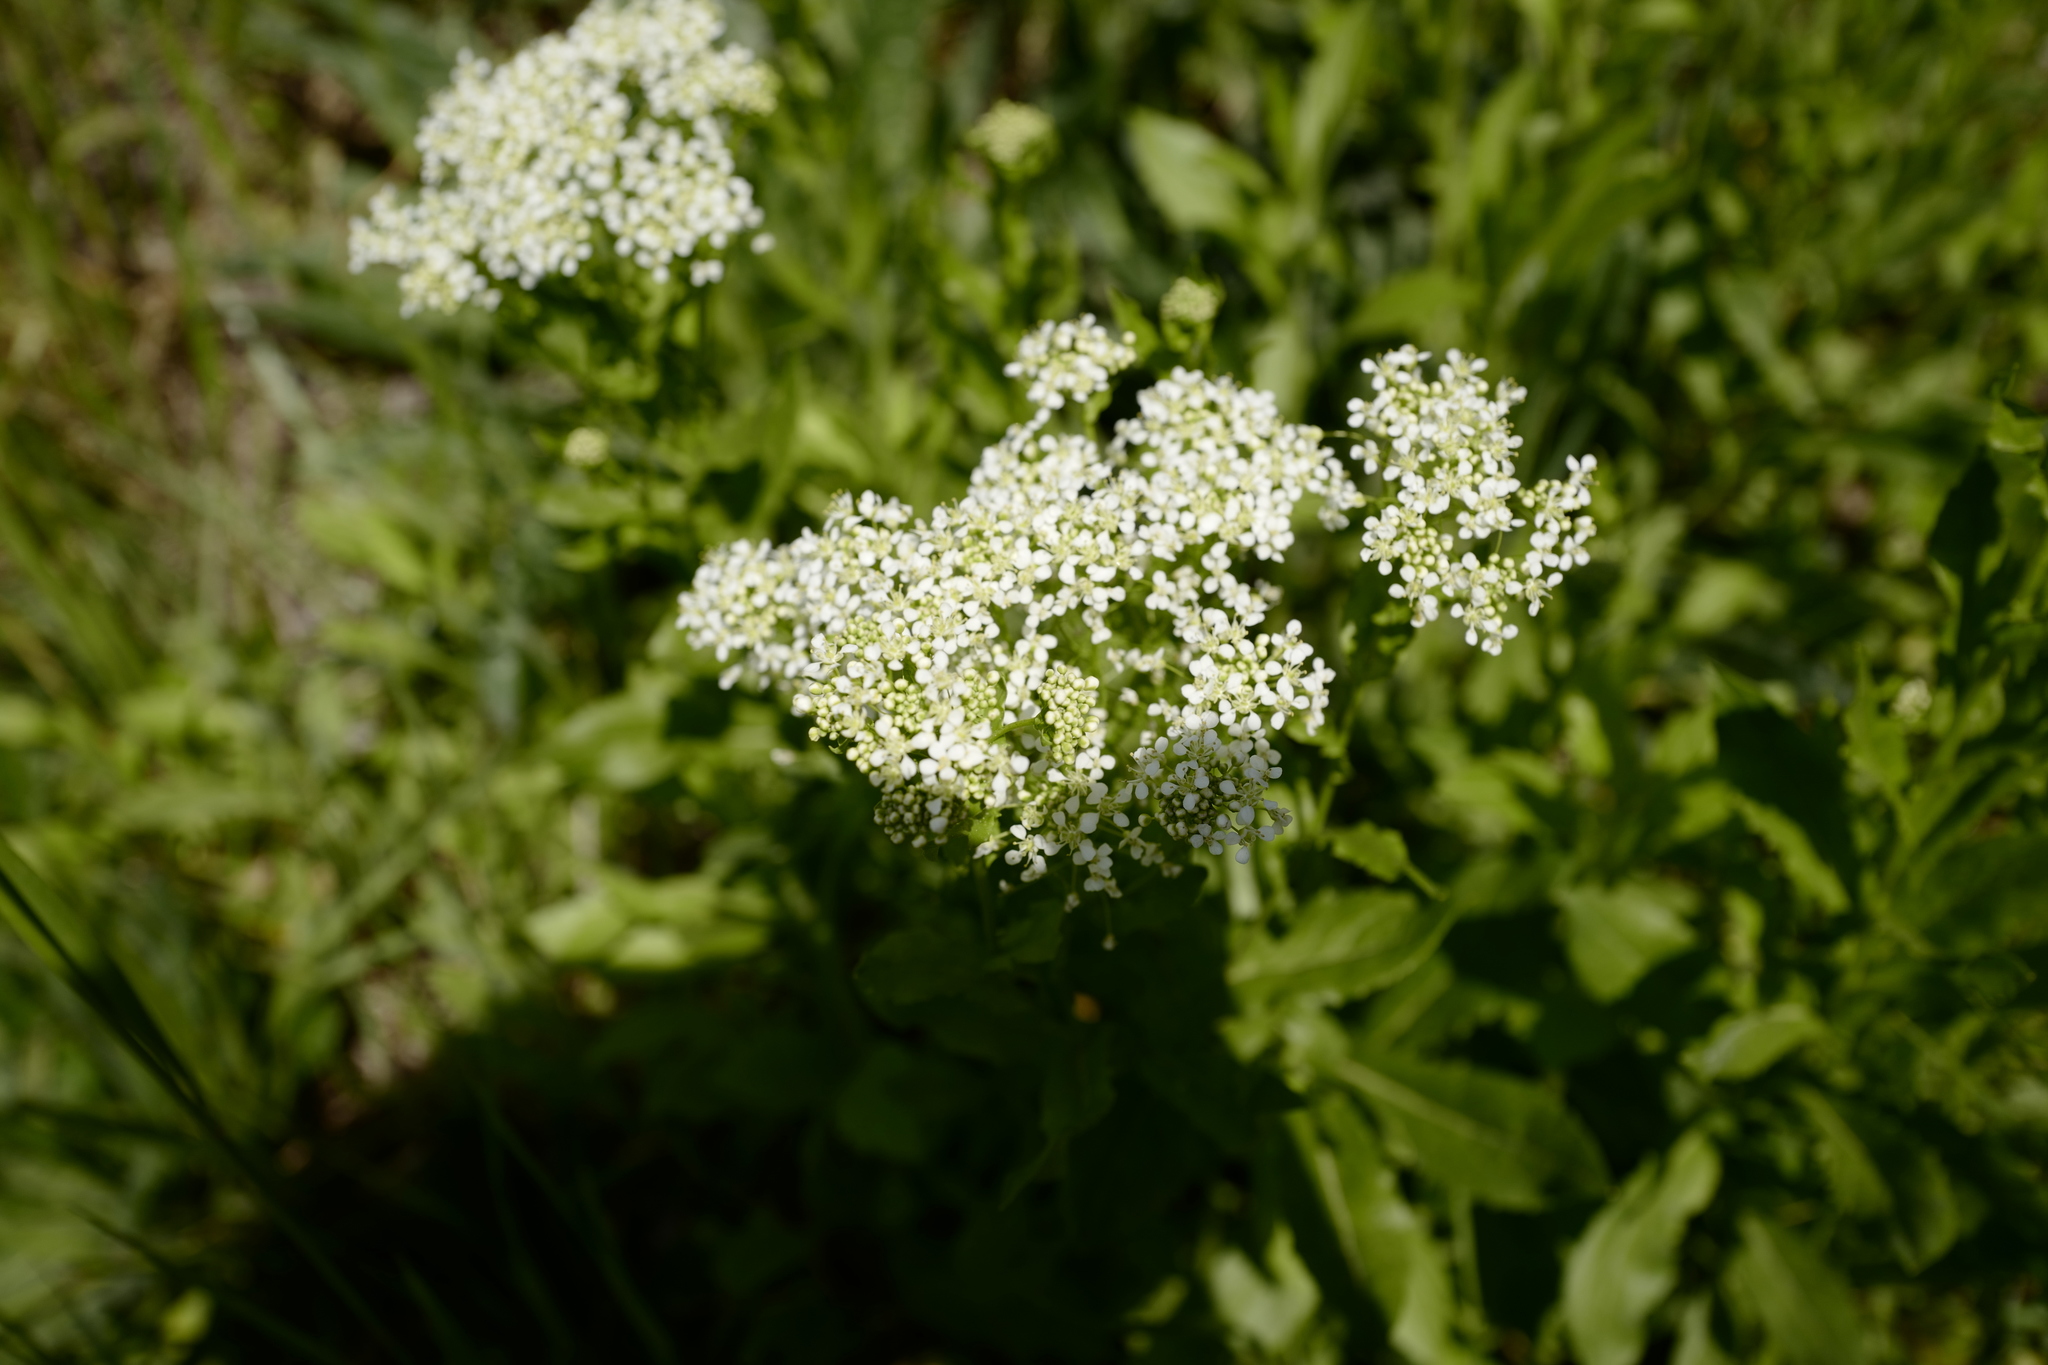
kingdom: Plantae
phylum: Tracheophyta
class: Magnoliopsida
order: Brassicales
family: Brassicaceae
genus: Lepidium
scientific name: Lepidium draba
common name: Hoary cress
